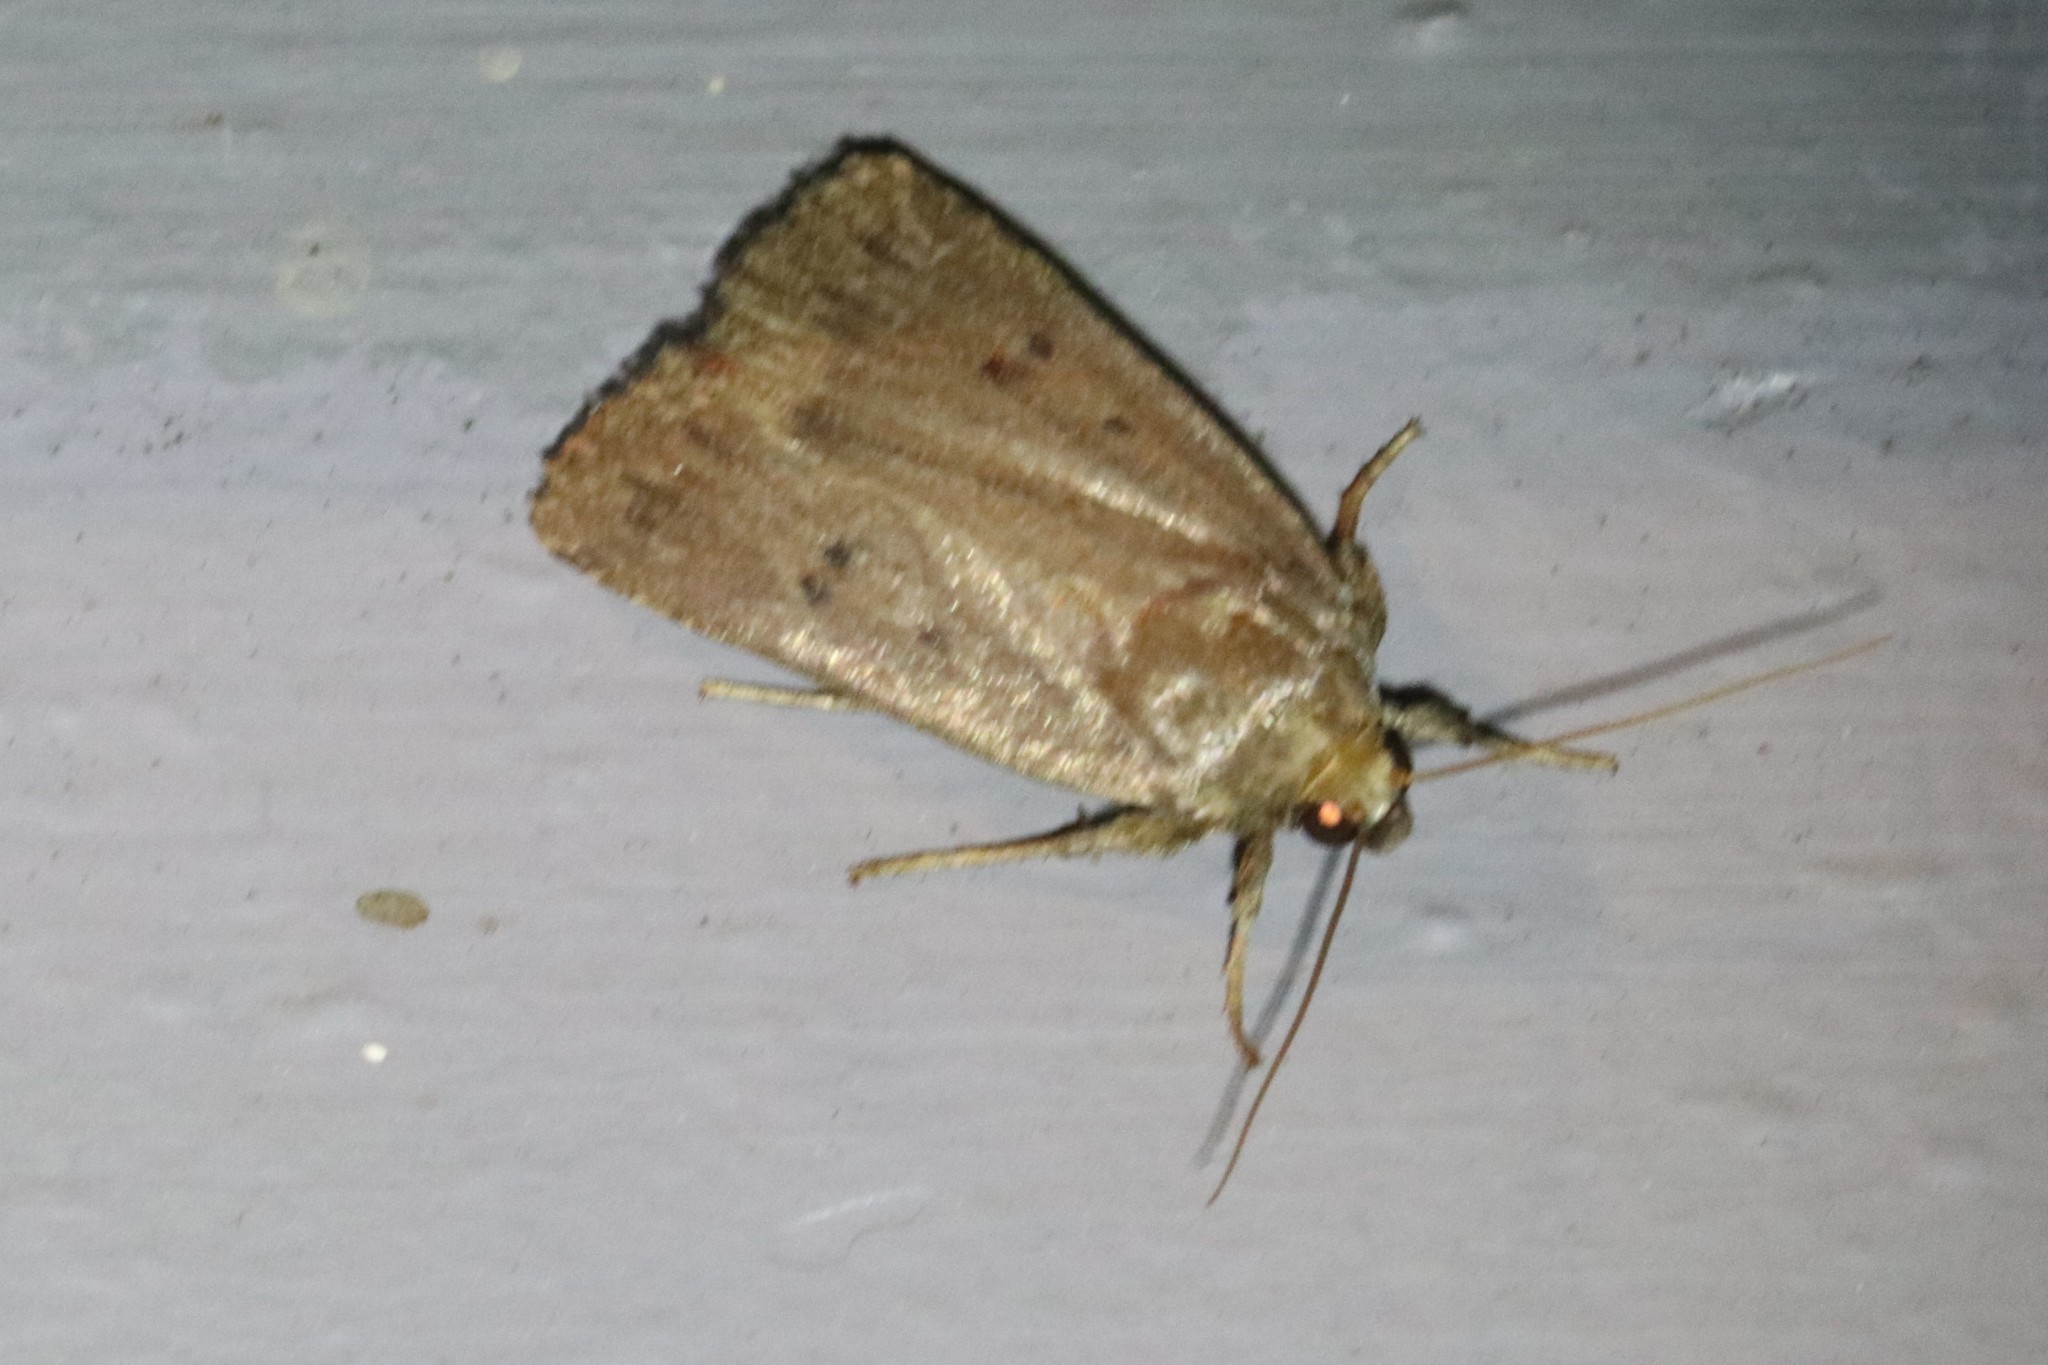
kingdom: Animalia
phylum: Arthropoda
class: Insecta
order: Lepidoptera
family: Noctuidae
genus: Amphipyra
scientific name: Amphipyra tragopoginis
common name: Mouse moth
